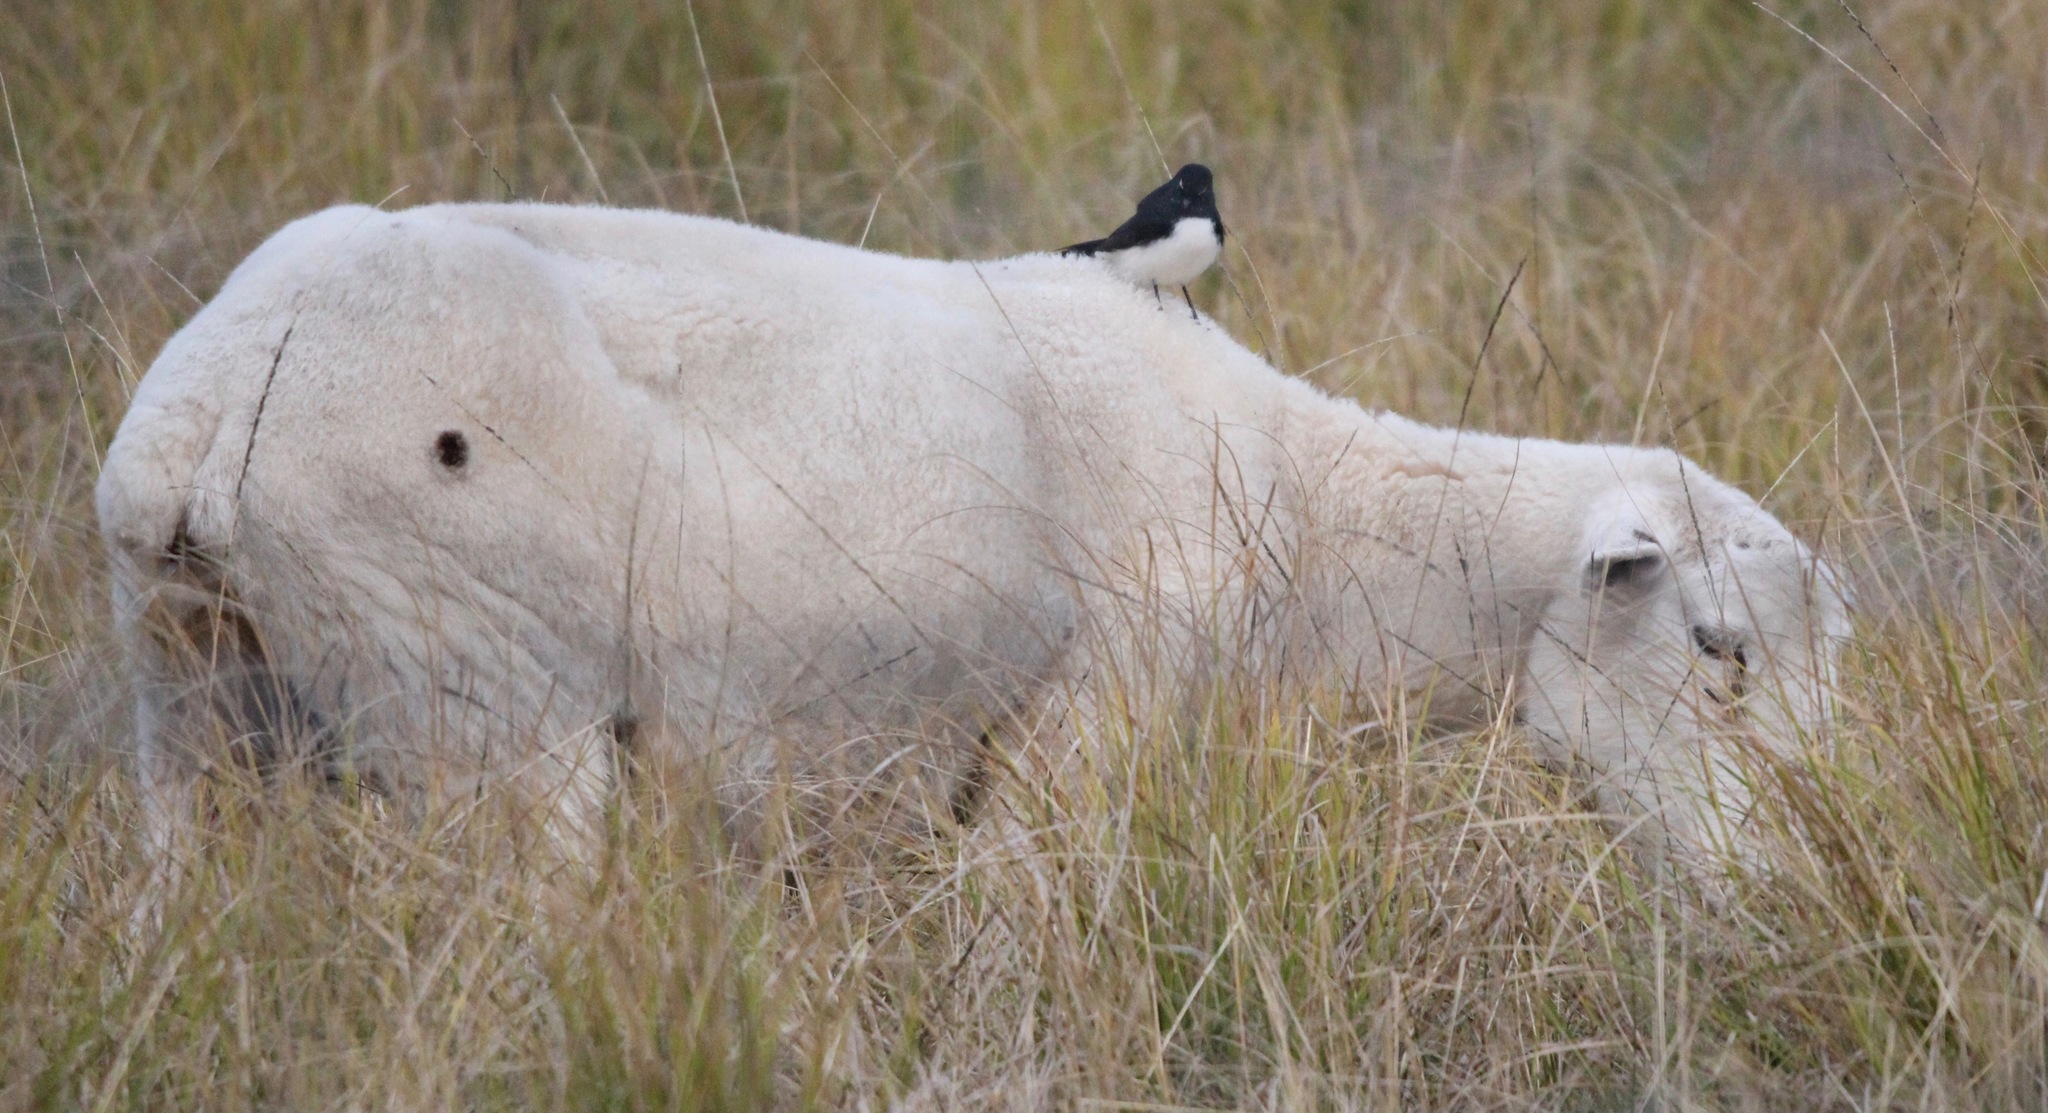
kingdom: Animalia
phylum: Chordata
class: Aves
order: Passeriformes
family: Rhipiduridae
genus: Rhipidura
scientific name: Rhipidura leucophrys
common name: Willie wagtail
